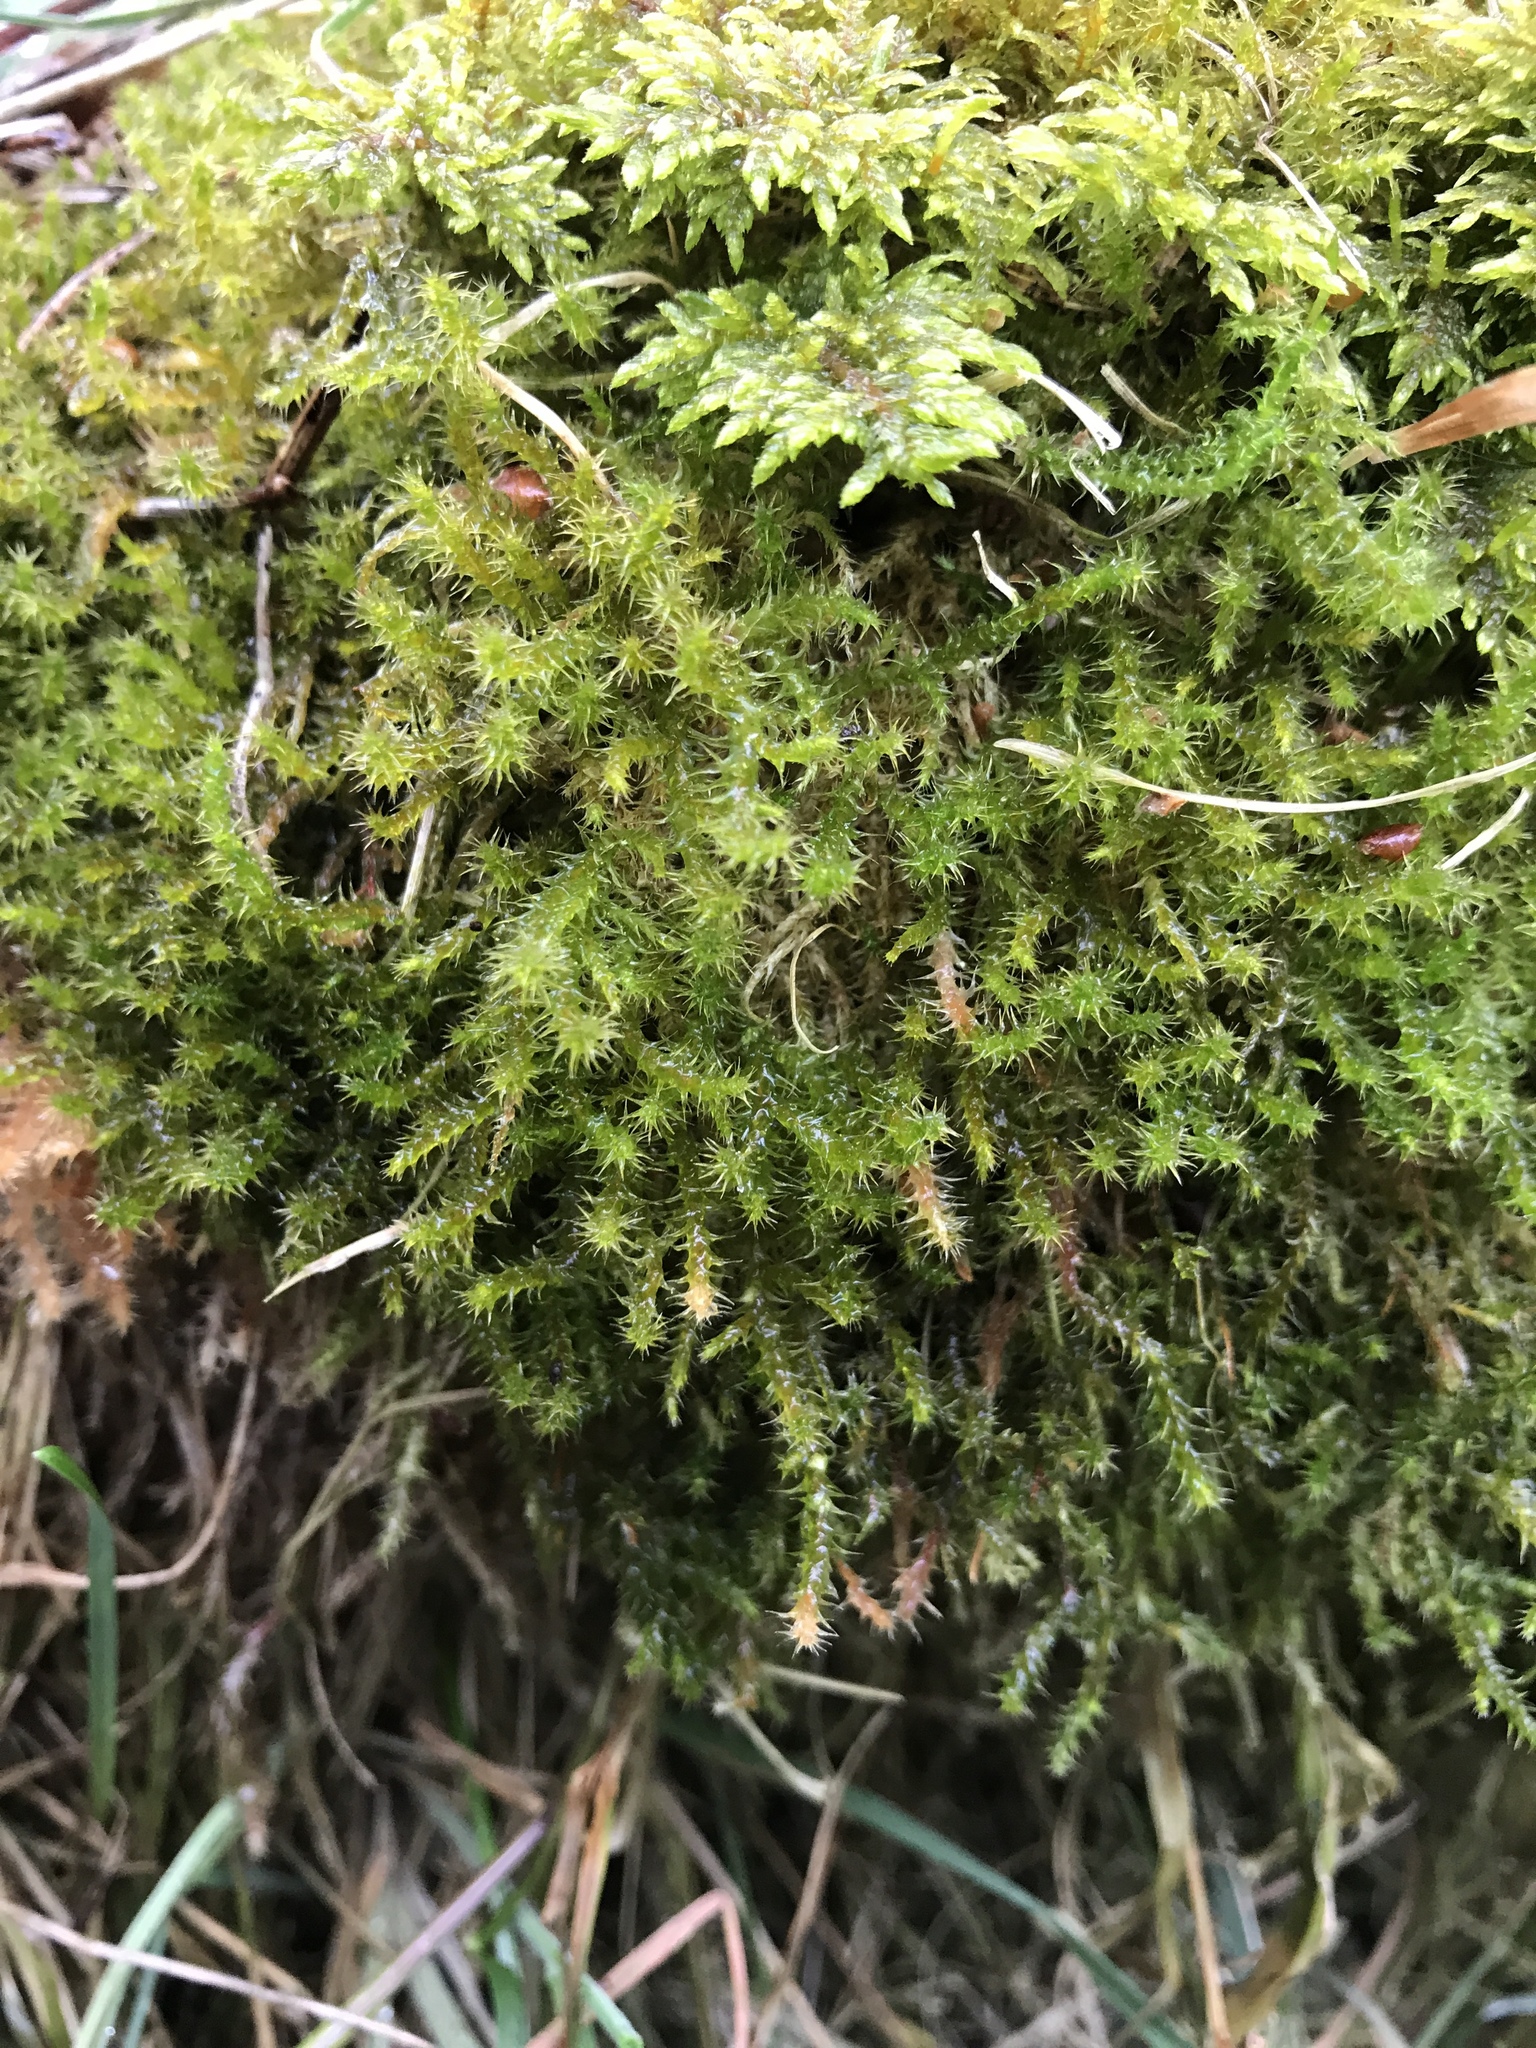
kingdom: Plantae
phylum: Bryophyta
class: Bryopsida
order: Hypnales
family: Hylocomiaceae
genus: Rhytidiadelphus
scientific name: Rhytidiadelphus squarrosus
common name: Springy turf-moss
